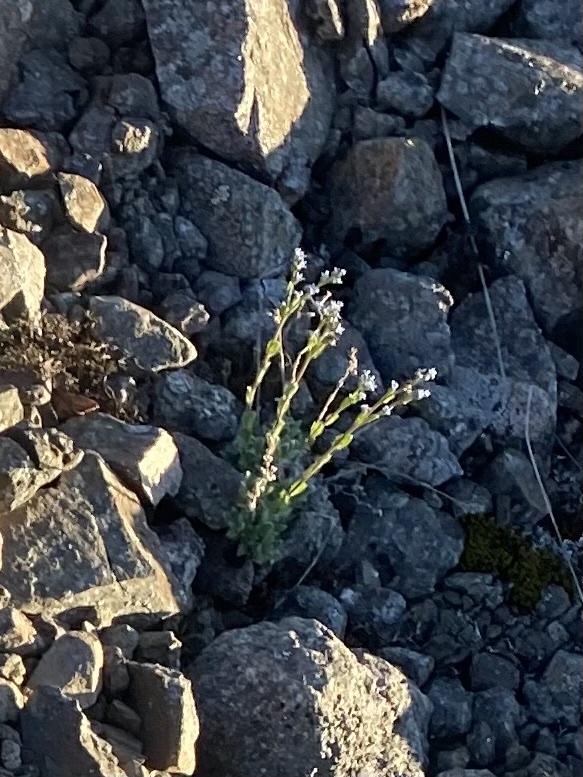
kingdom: Plantae
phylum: Tracheophyta
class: Magnoliopsida
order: Boraginales
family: Boraginaceae
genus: Eritrichium
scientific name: Eritrichium villosum
